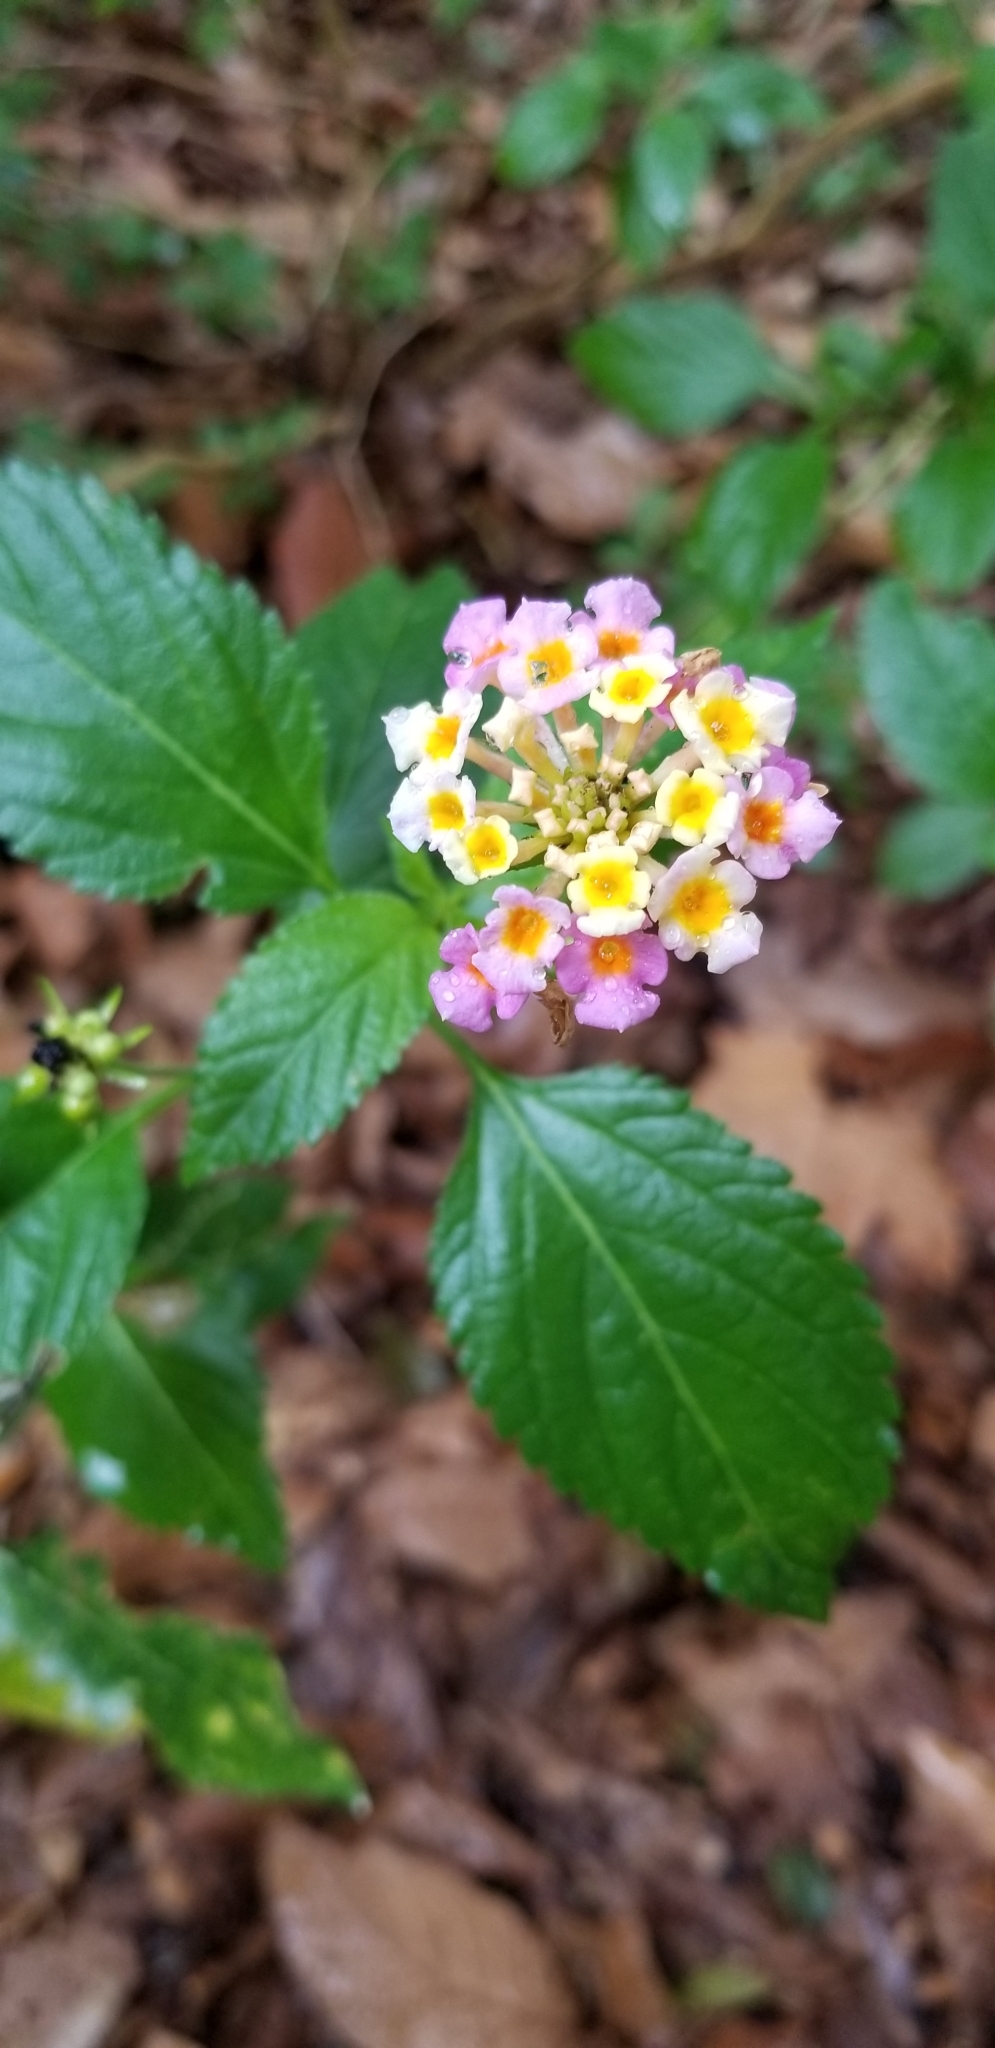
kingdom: Plantae
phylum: Tracheophyta
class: Magnoliopsida
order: Lamiales
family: Verbenaceae
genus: Lantana
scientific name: Lantana strigocamara
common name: Lantana
